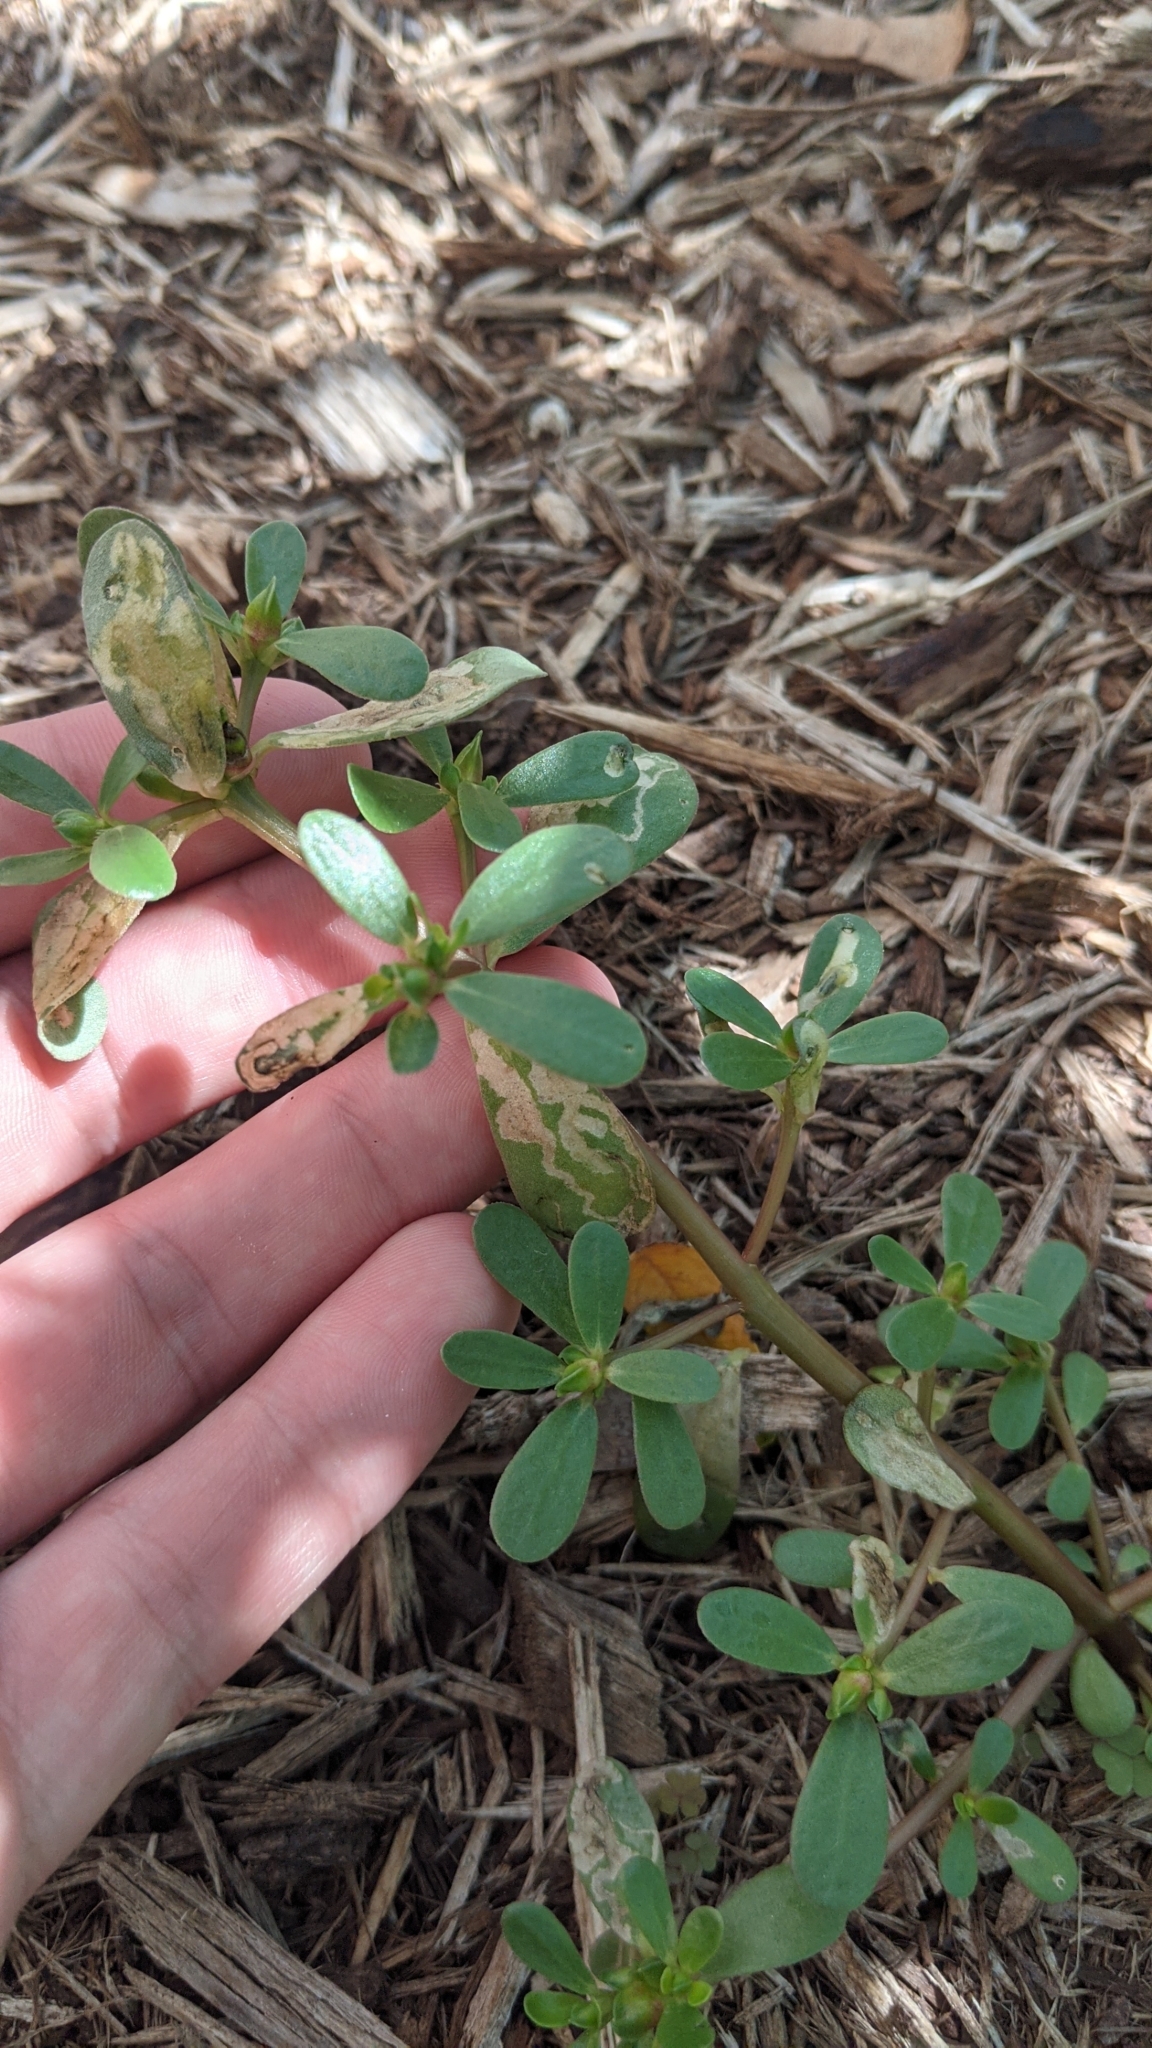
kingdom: Plantae
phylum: Tracheophyta
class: Magnoliopsida
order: Caryophyllales
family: Portulacaceae
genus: Portulaca
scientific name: Portulaca oleracea
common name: Common purslane
